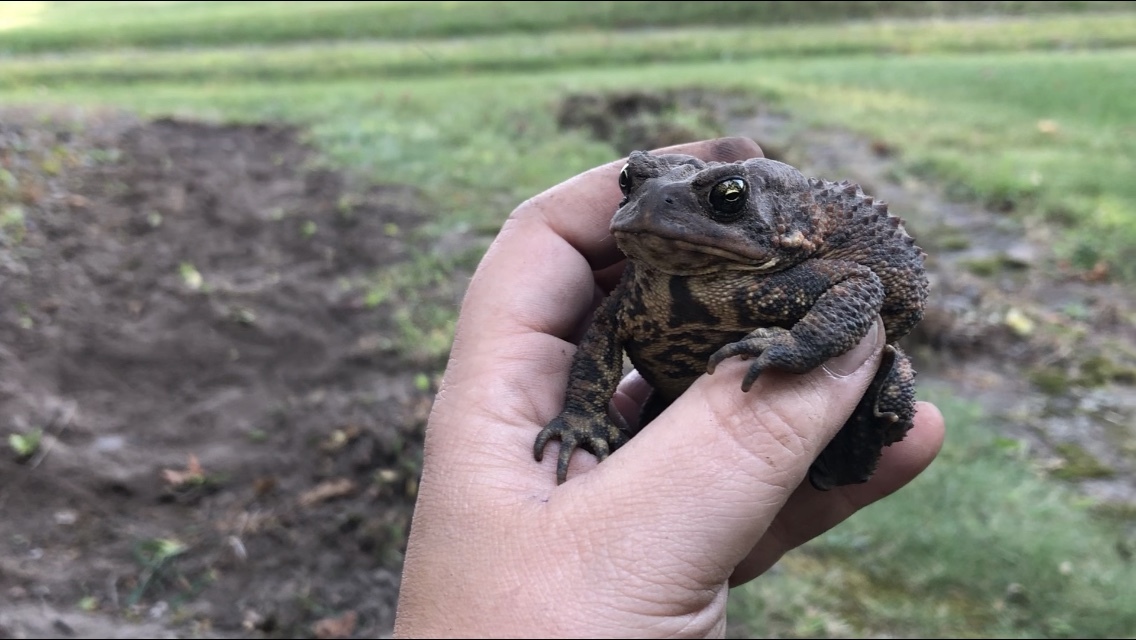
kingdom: Animalia
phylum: Chordata
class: Amphibia
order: Anura
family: Bufonidae
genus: Anaxyrus
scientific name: Anaxyrus americanus
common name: American toad
